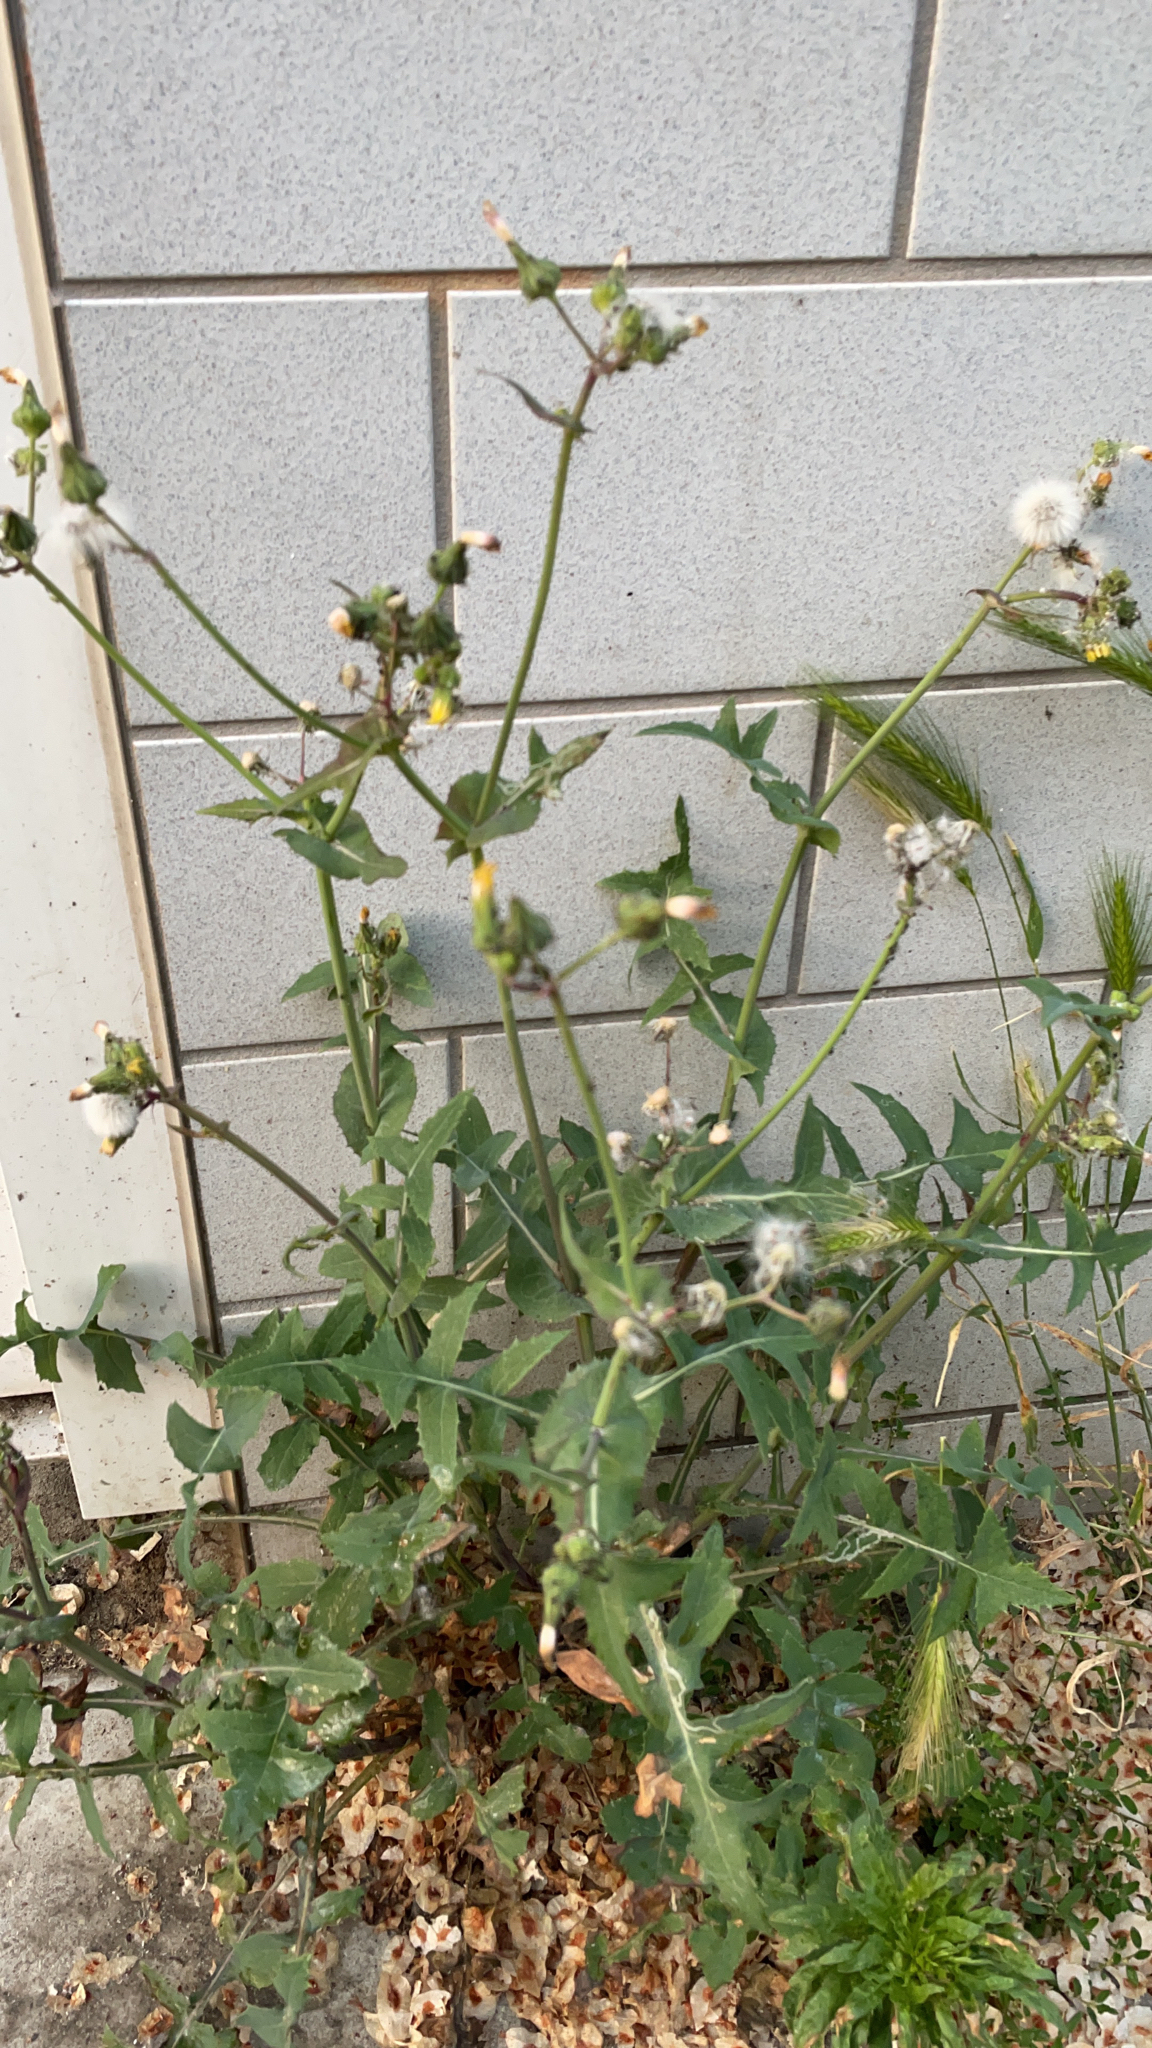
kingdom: Plantae
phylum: Tracheophyta
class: Magnoliopsida
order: Asterales
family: Asteraceae
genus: Sonchus
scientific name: Sonchus oleraceus
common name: Common sowthistle
